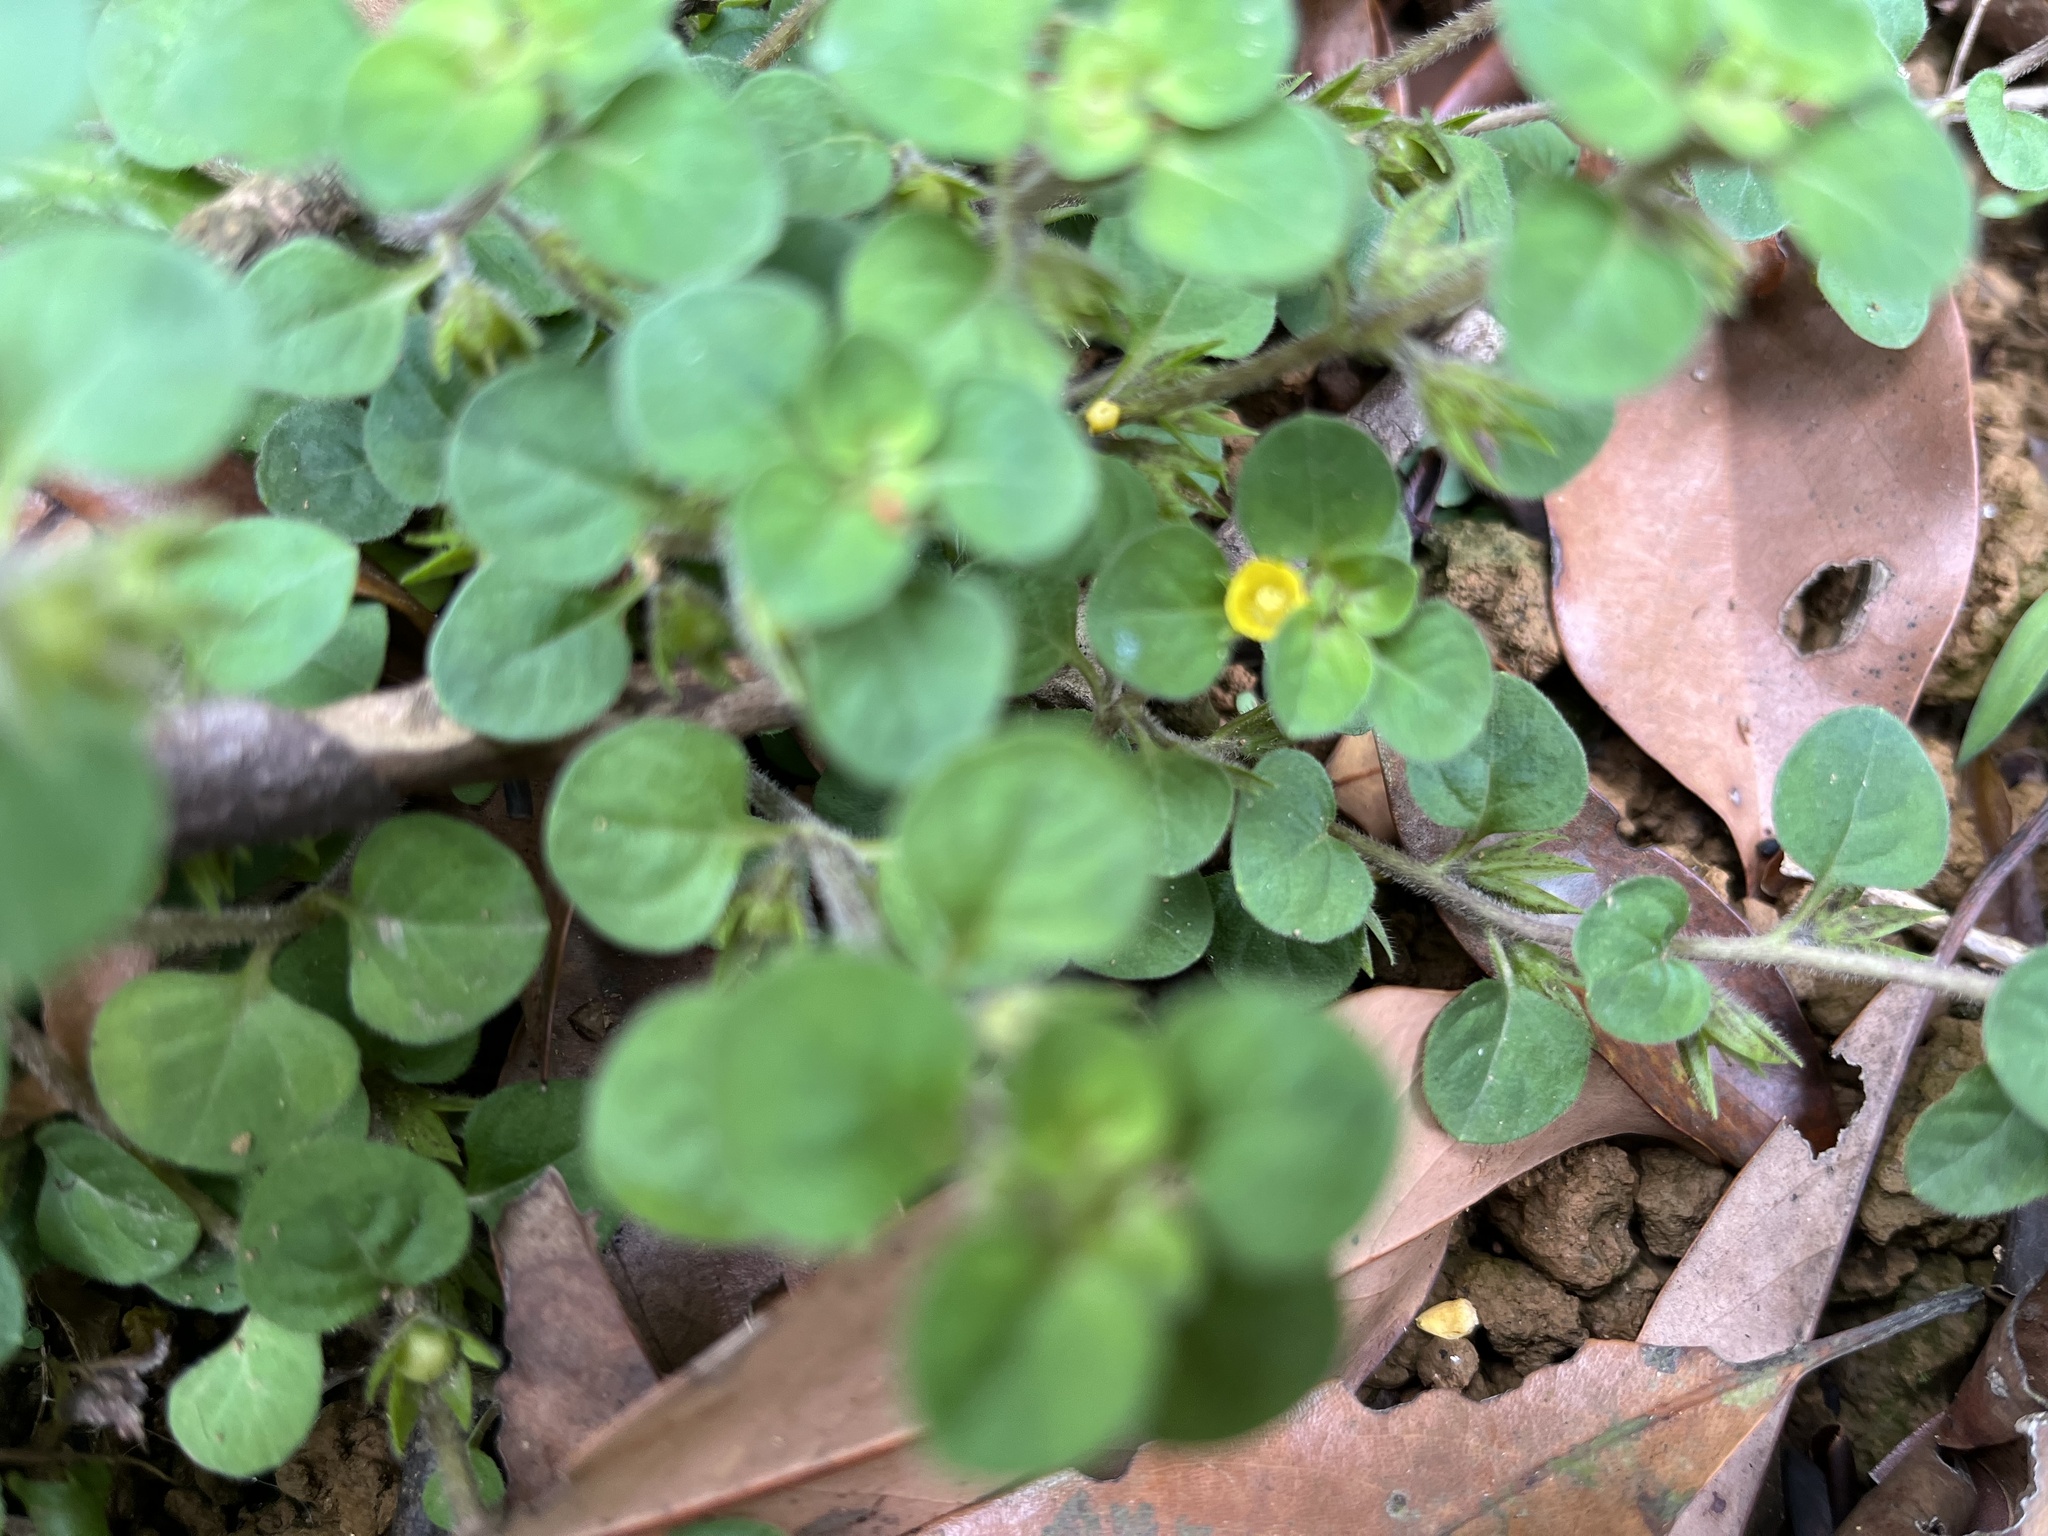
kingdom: Plantae
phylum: Tracheophyta
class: Magnoliopsida
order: Ericales
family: Primulaceae
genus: Lysimachia
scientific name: Lysimachia japonica
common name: Japanese yellow loosestrife
